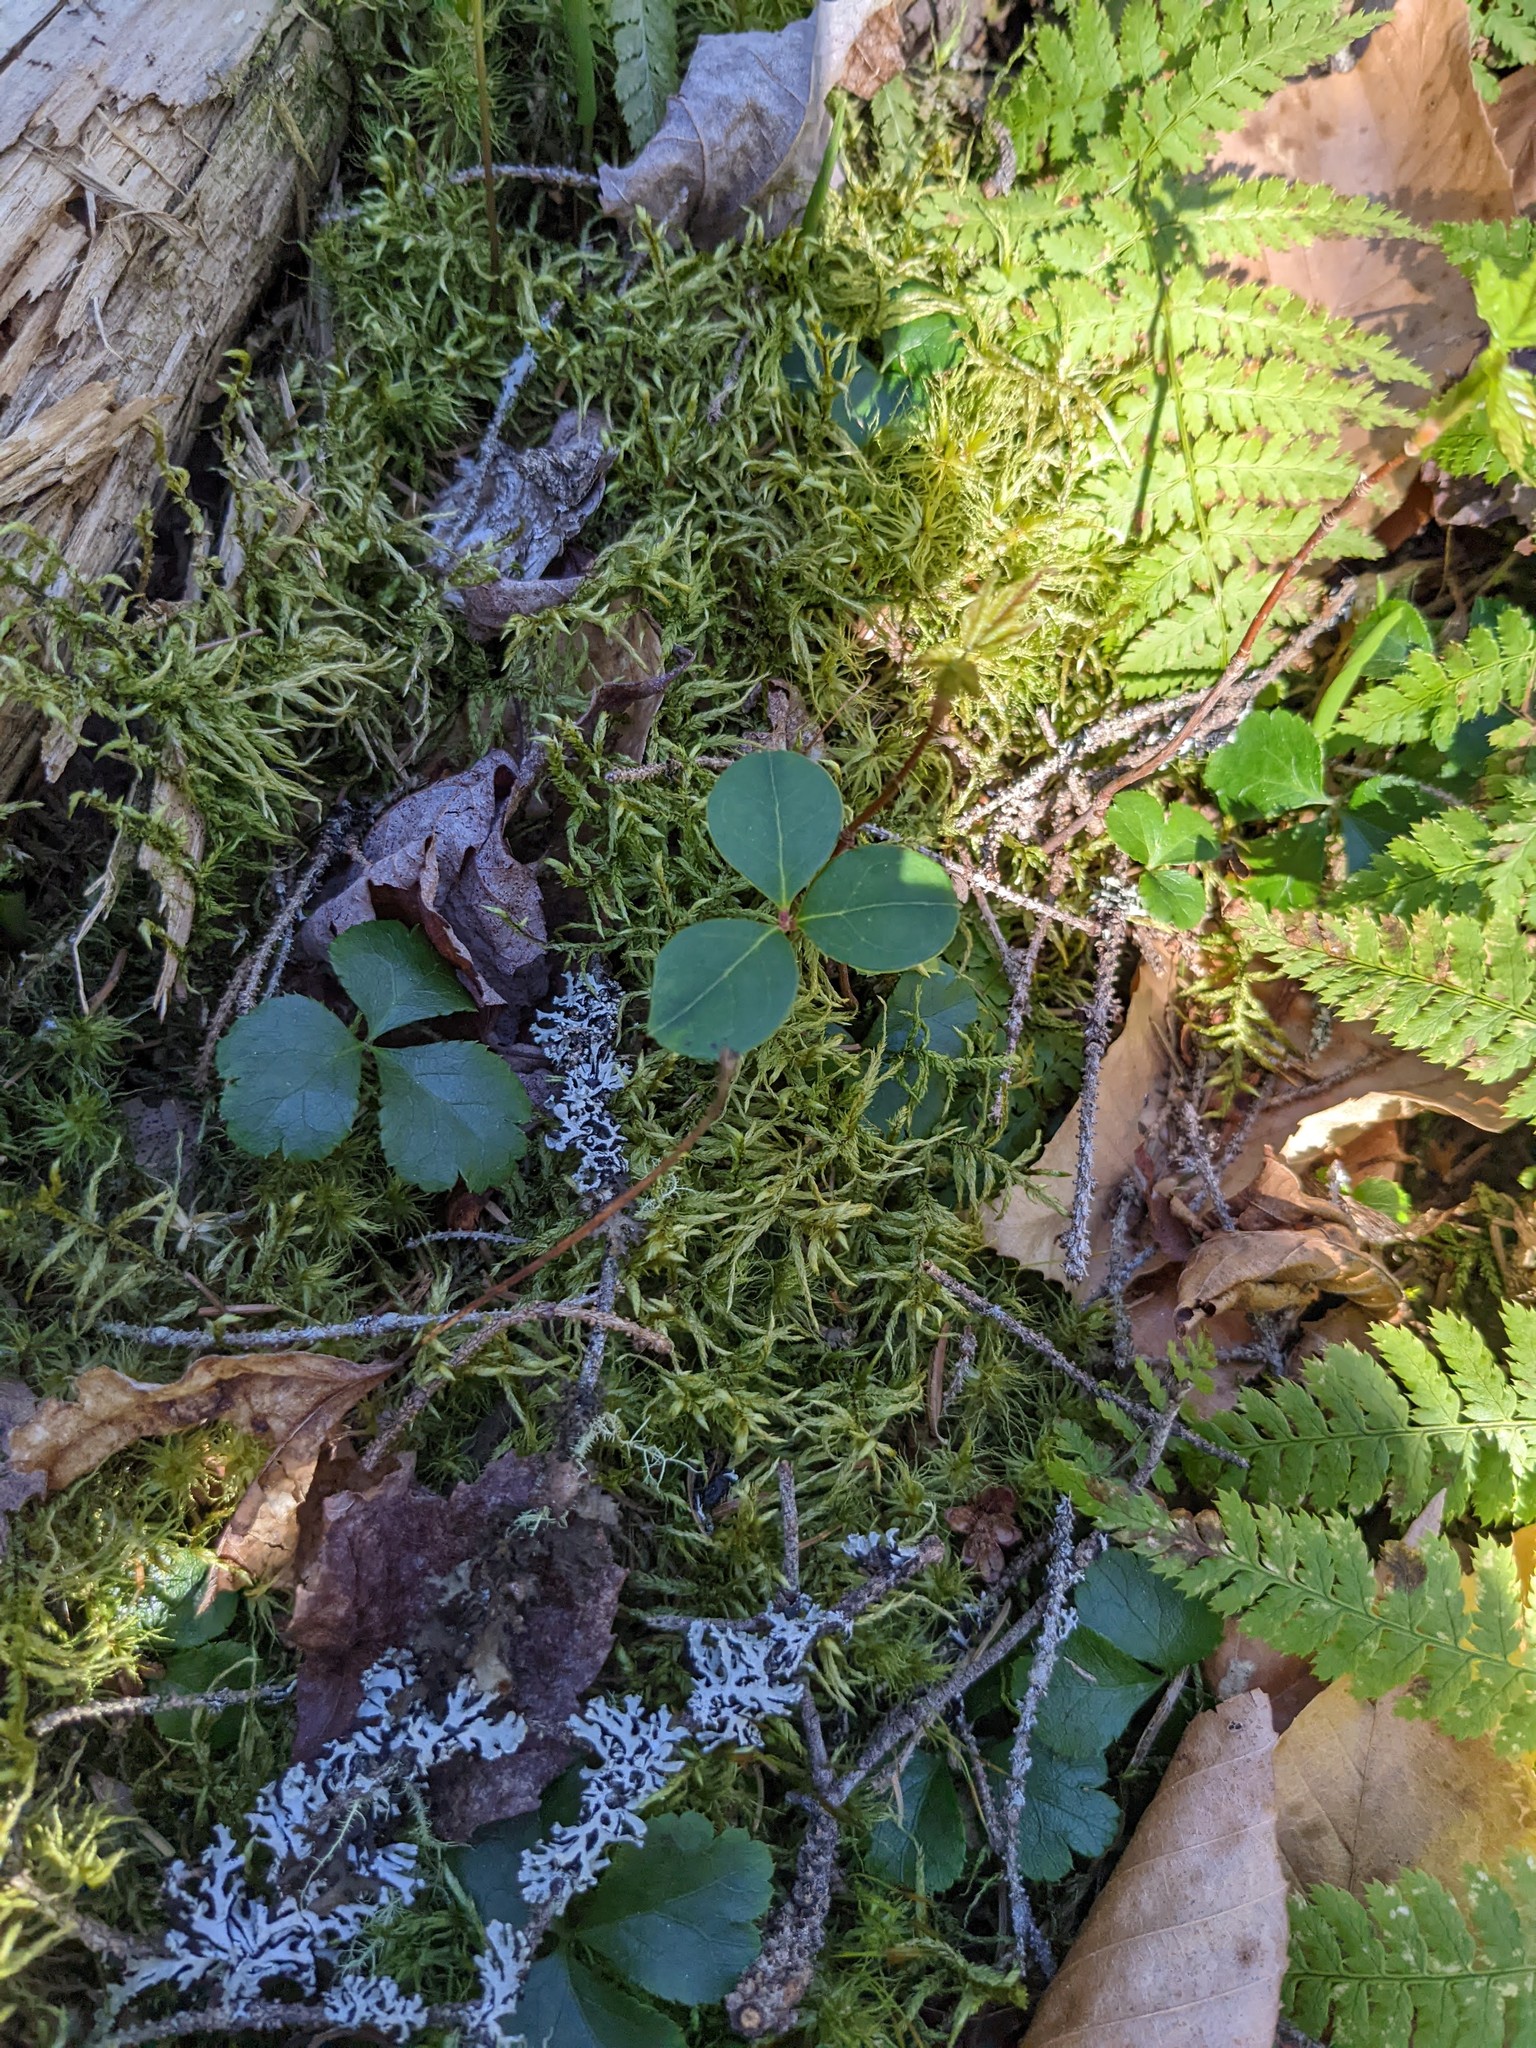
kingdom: Plantae
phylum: Tracheophyta
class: Magnoliopsida
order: Ranunculales
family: Ranunculaceae
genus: Coptis
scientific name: Coptis trifolia
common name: Canker-root
